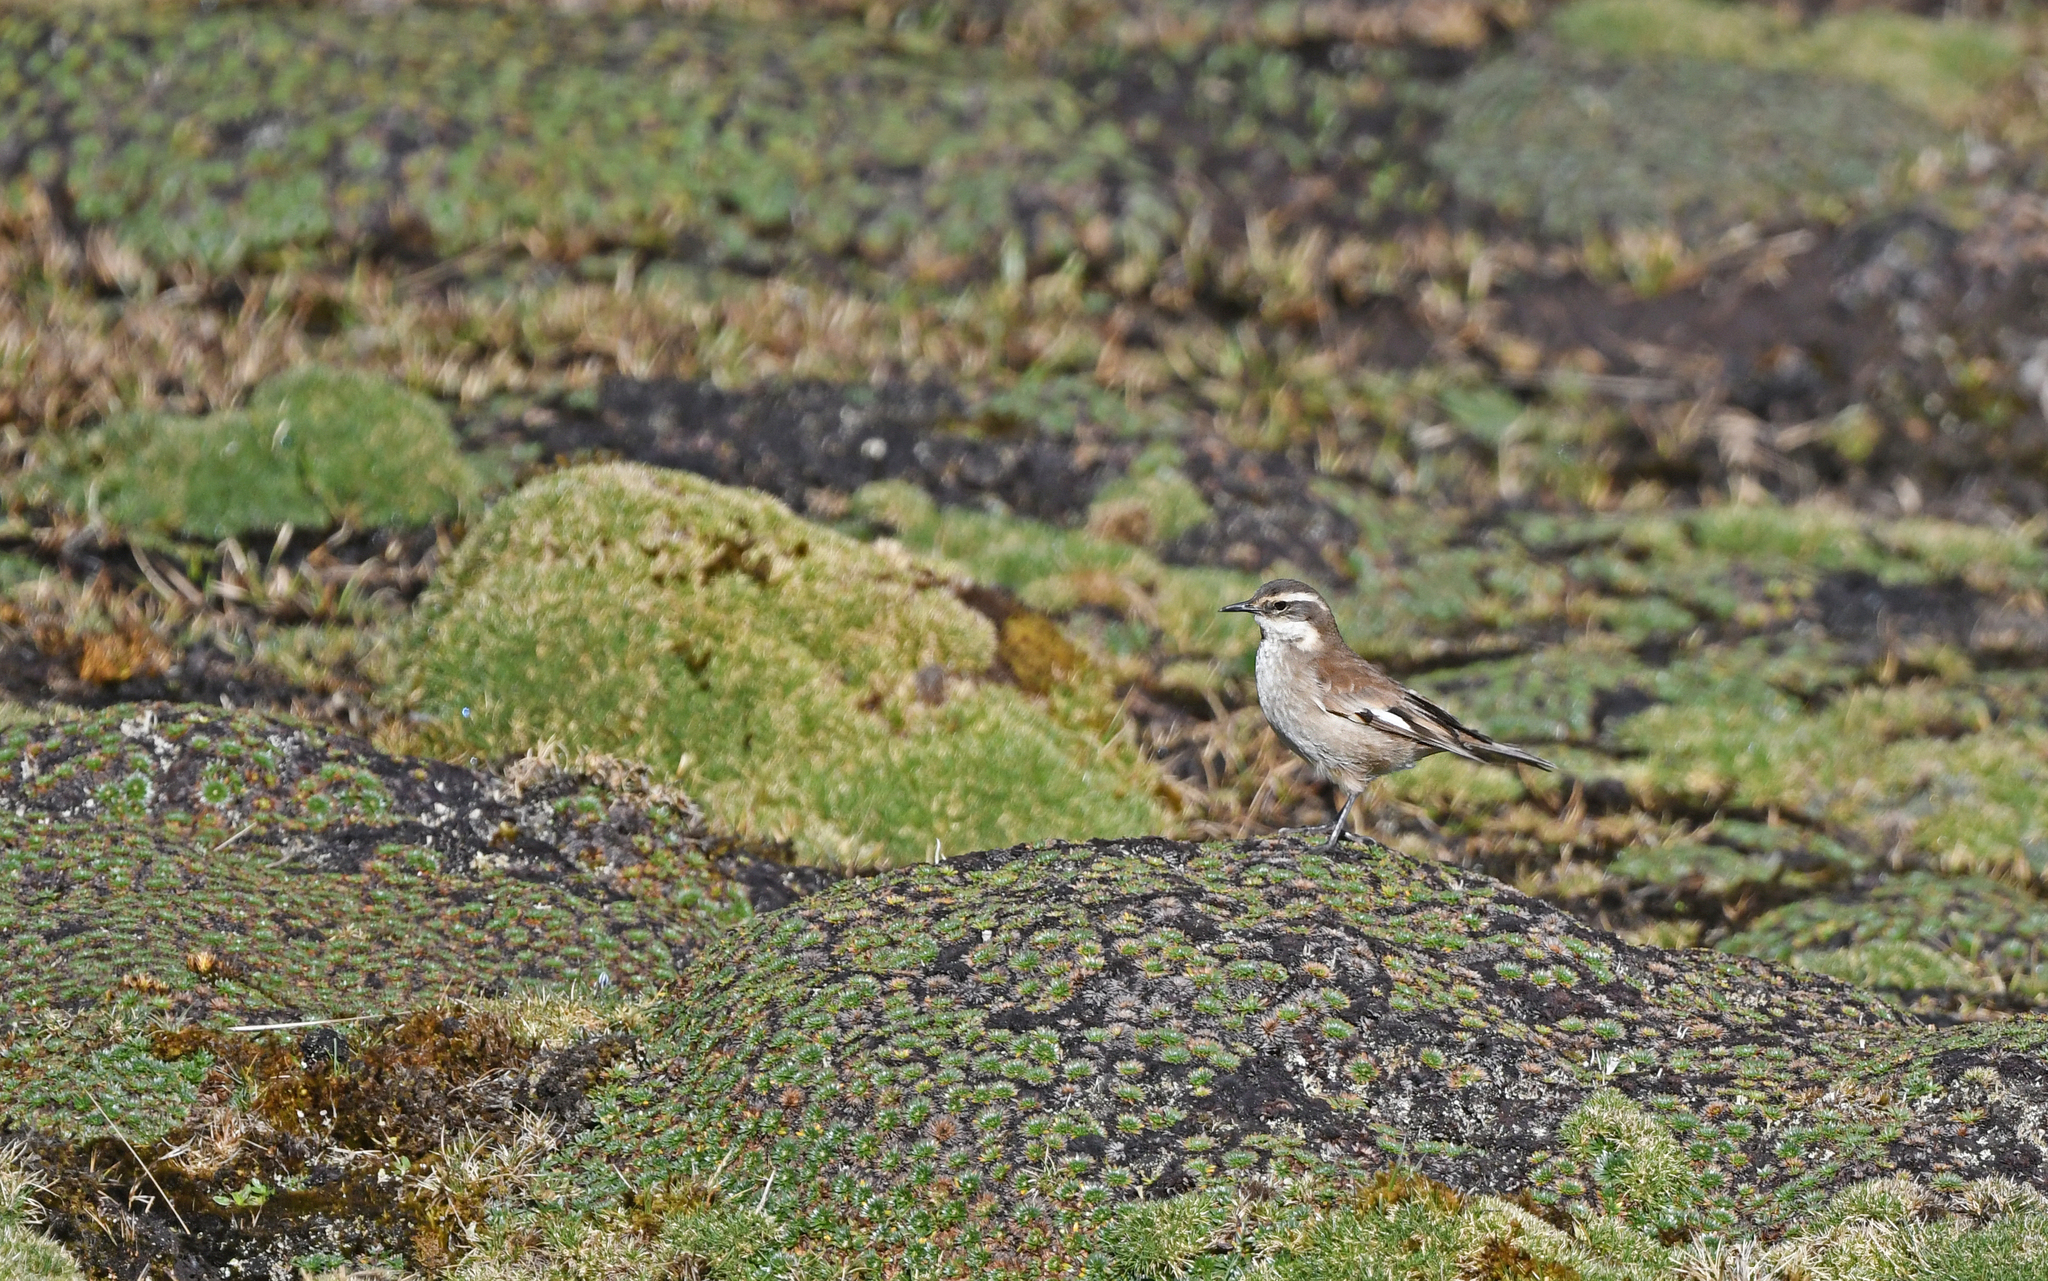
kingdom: Animalia
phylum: Chordata
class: Aves
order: Passeriformes
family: Furnariidae
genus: Cinclodes
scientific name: Cinclodes fuscus
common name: Buff-winged cinclodes
